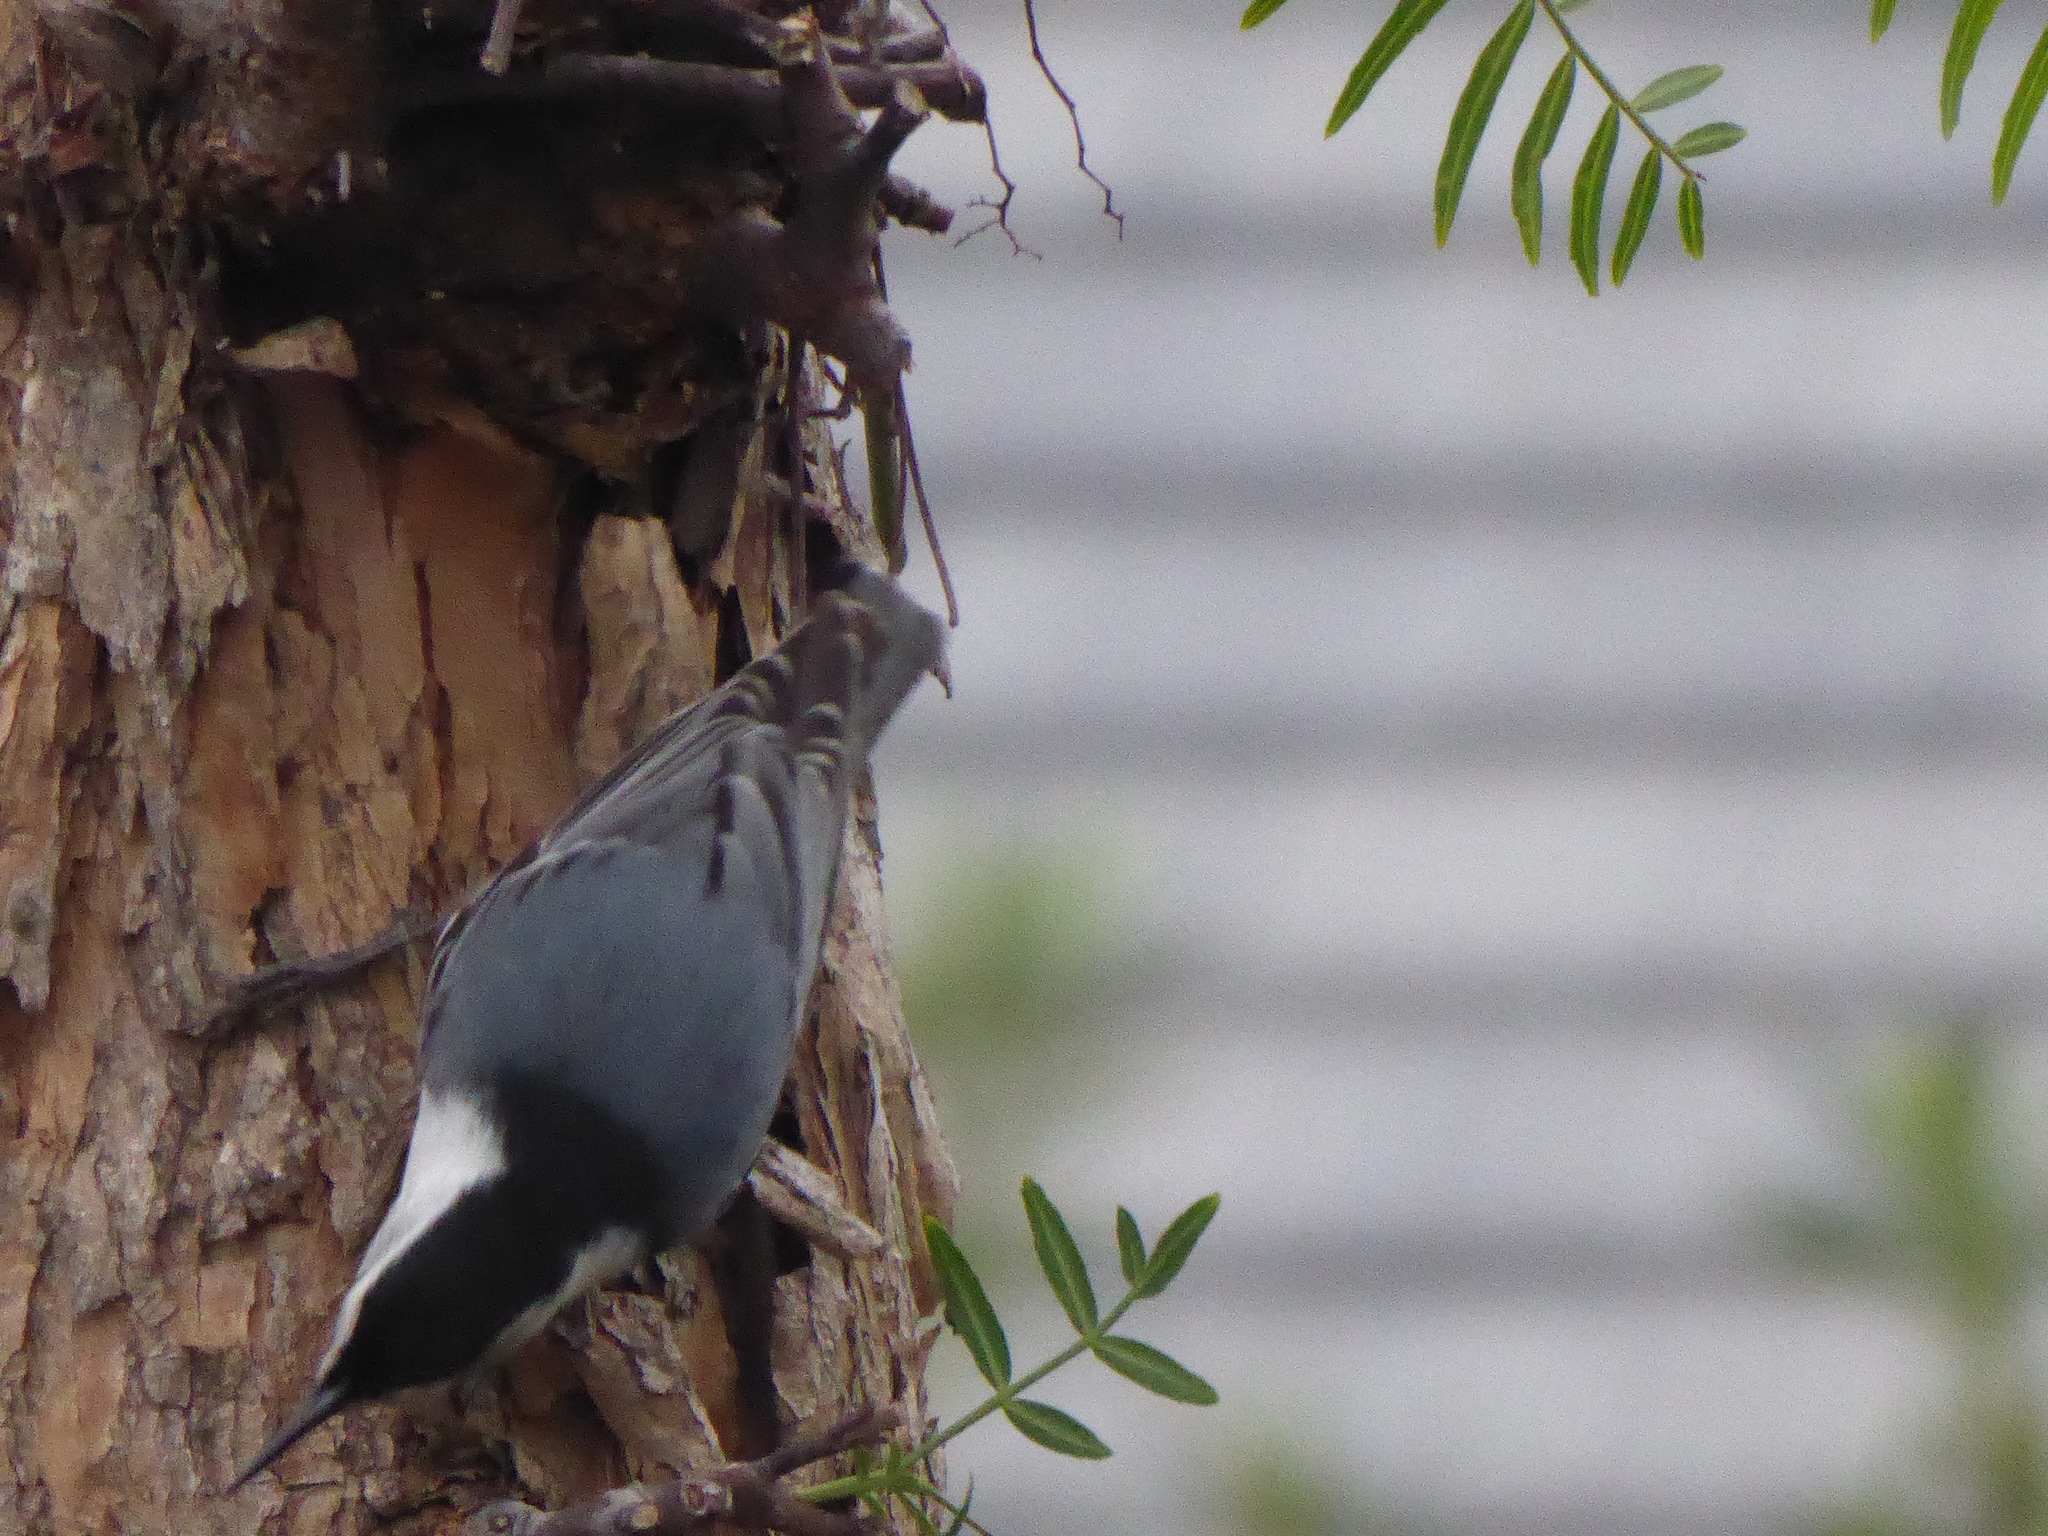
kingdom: Animalia
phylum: Chordata
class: Aves
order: Passeriformes
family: Sittidae
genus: Sitta
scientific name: Sitta carolinensis
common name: White-breasted nuthatch
